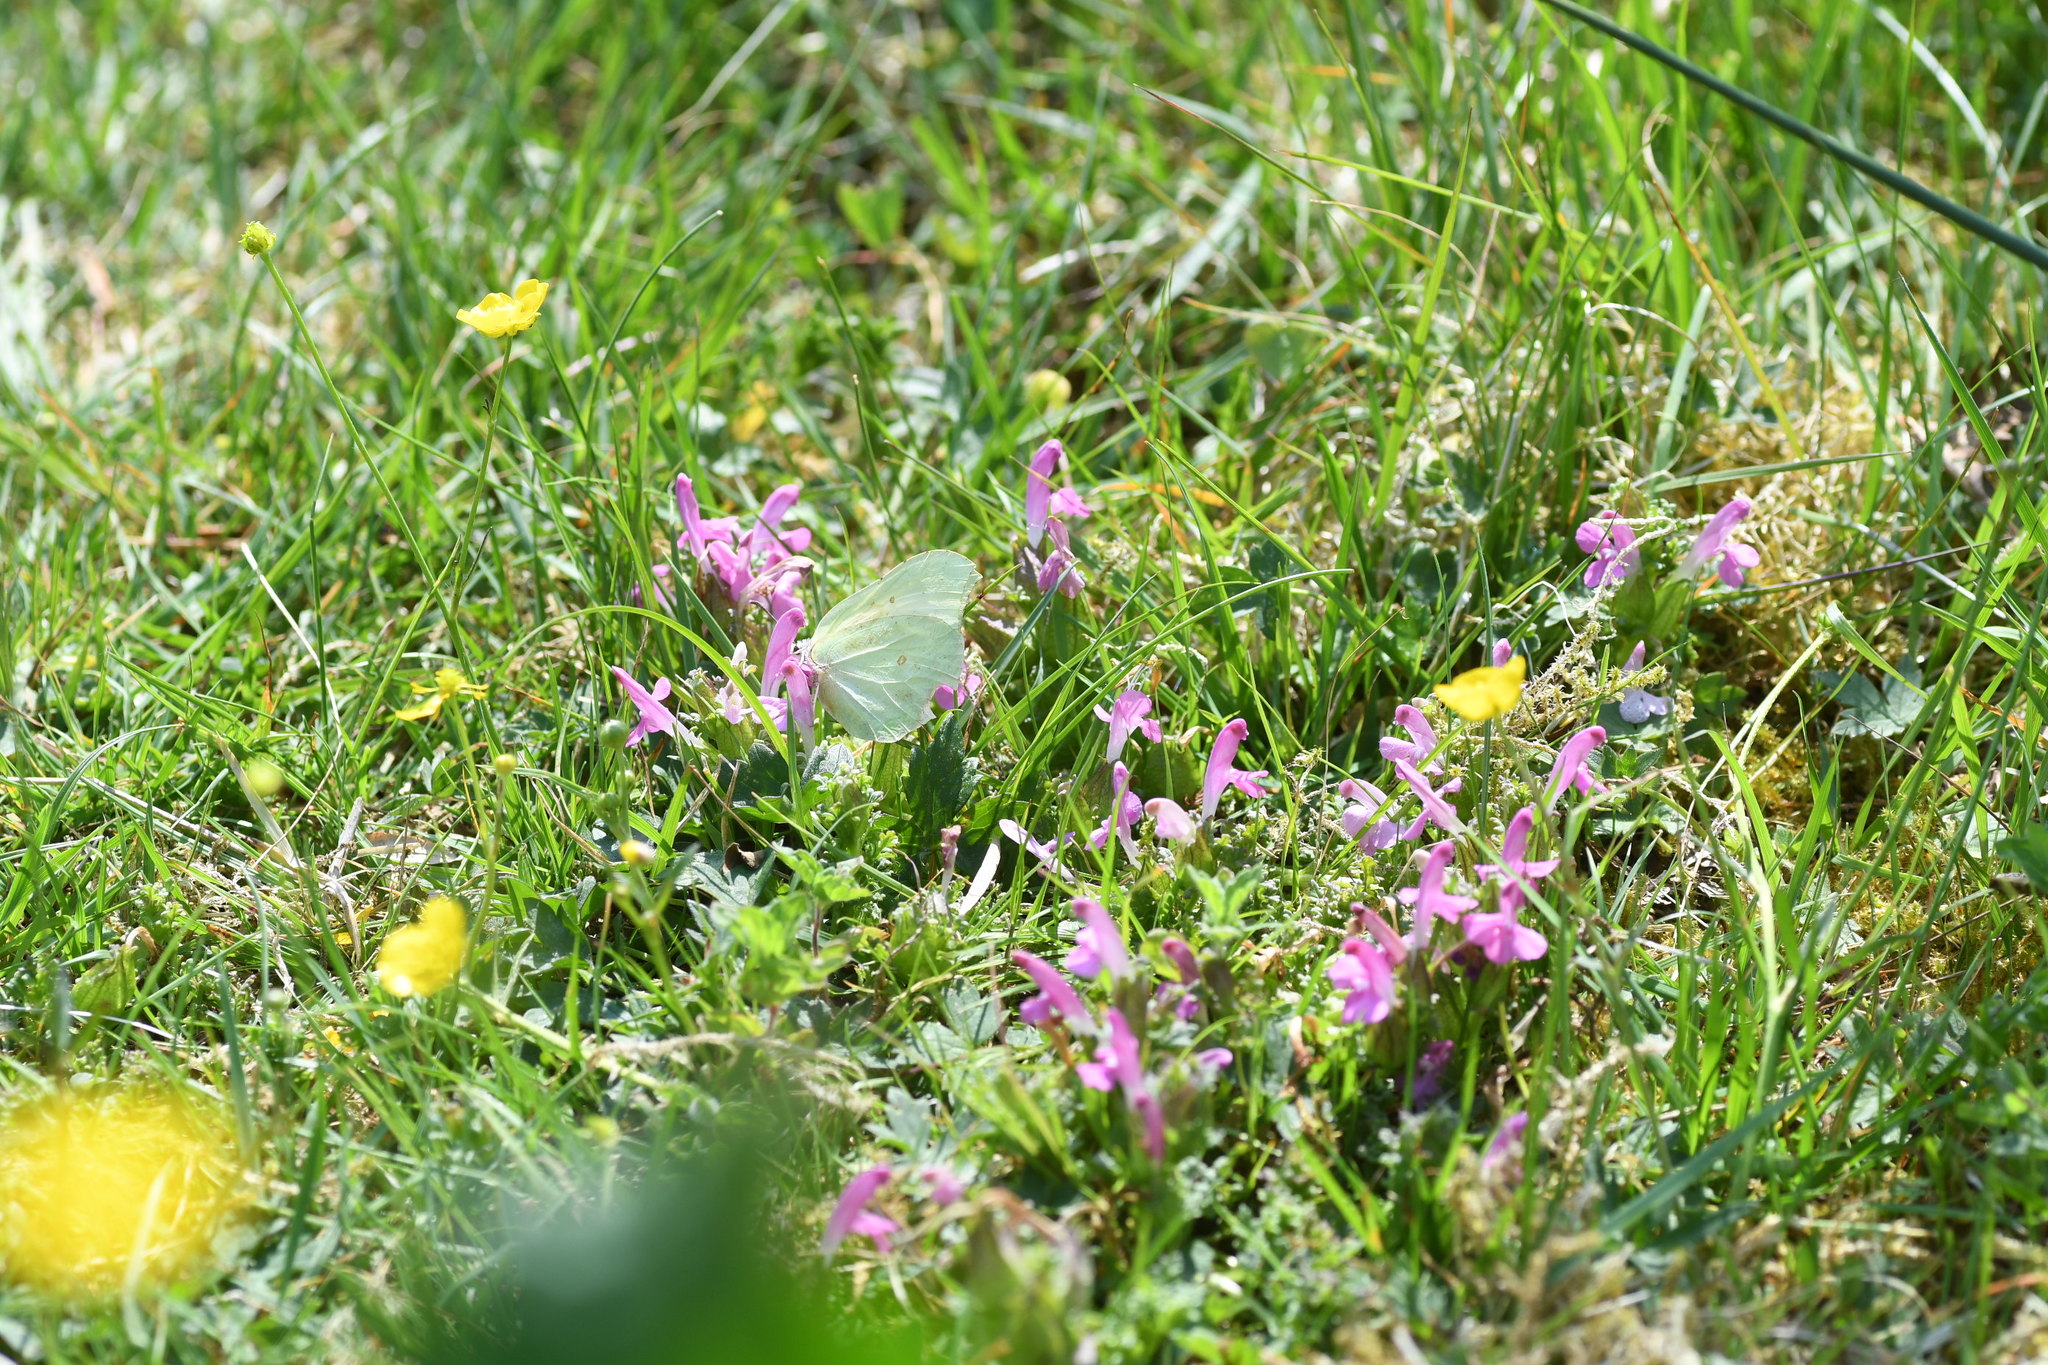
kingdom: Plantae
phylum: Tracheophyta
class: Magnoliopsida
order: Lamiales
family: Orobanchaceae
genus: Pedicularis
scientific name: Pedicularis sylvatica
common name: Lousewort
